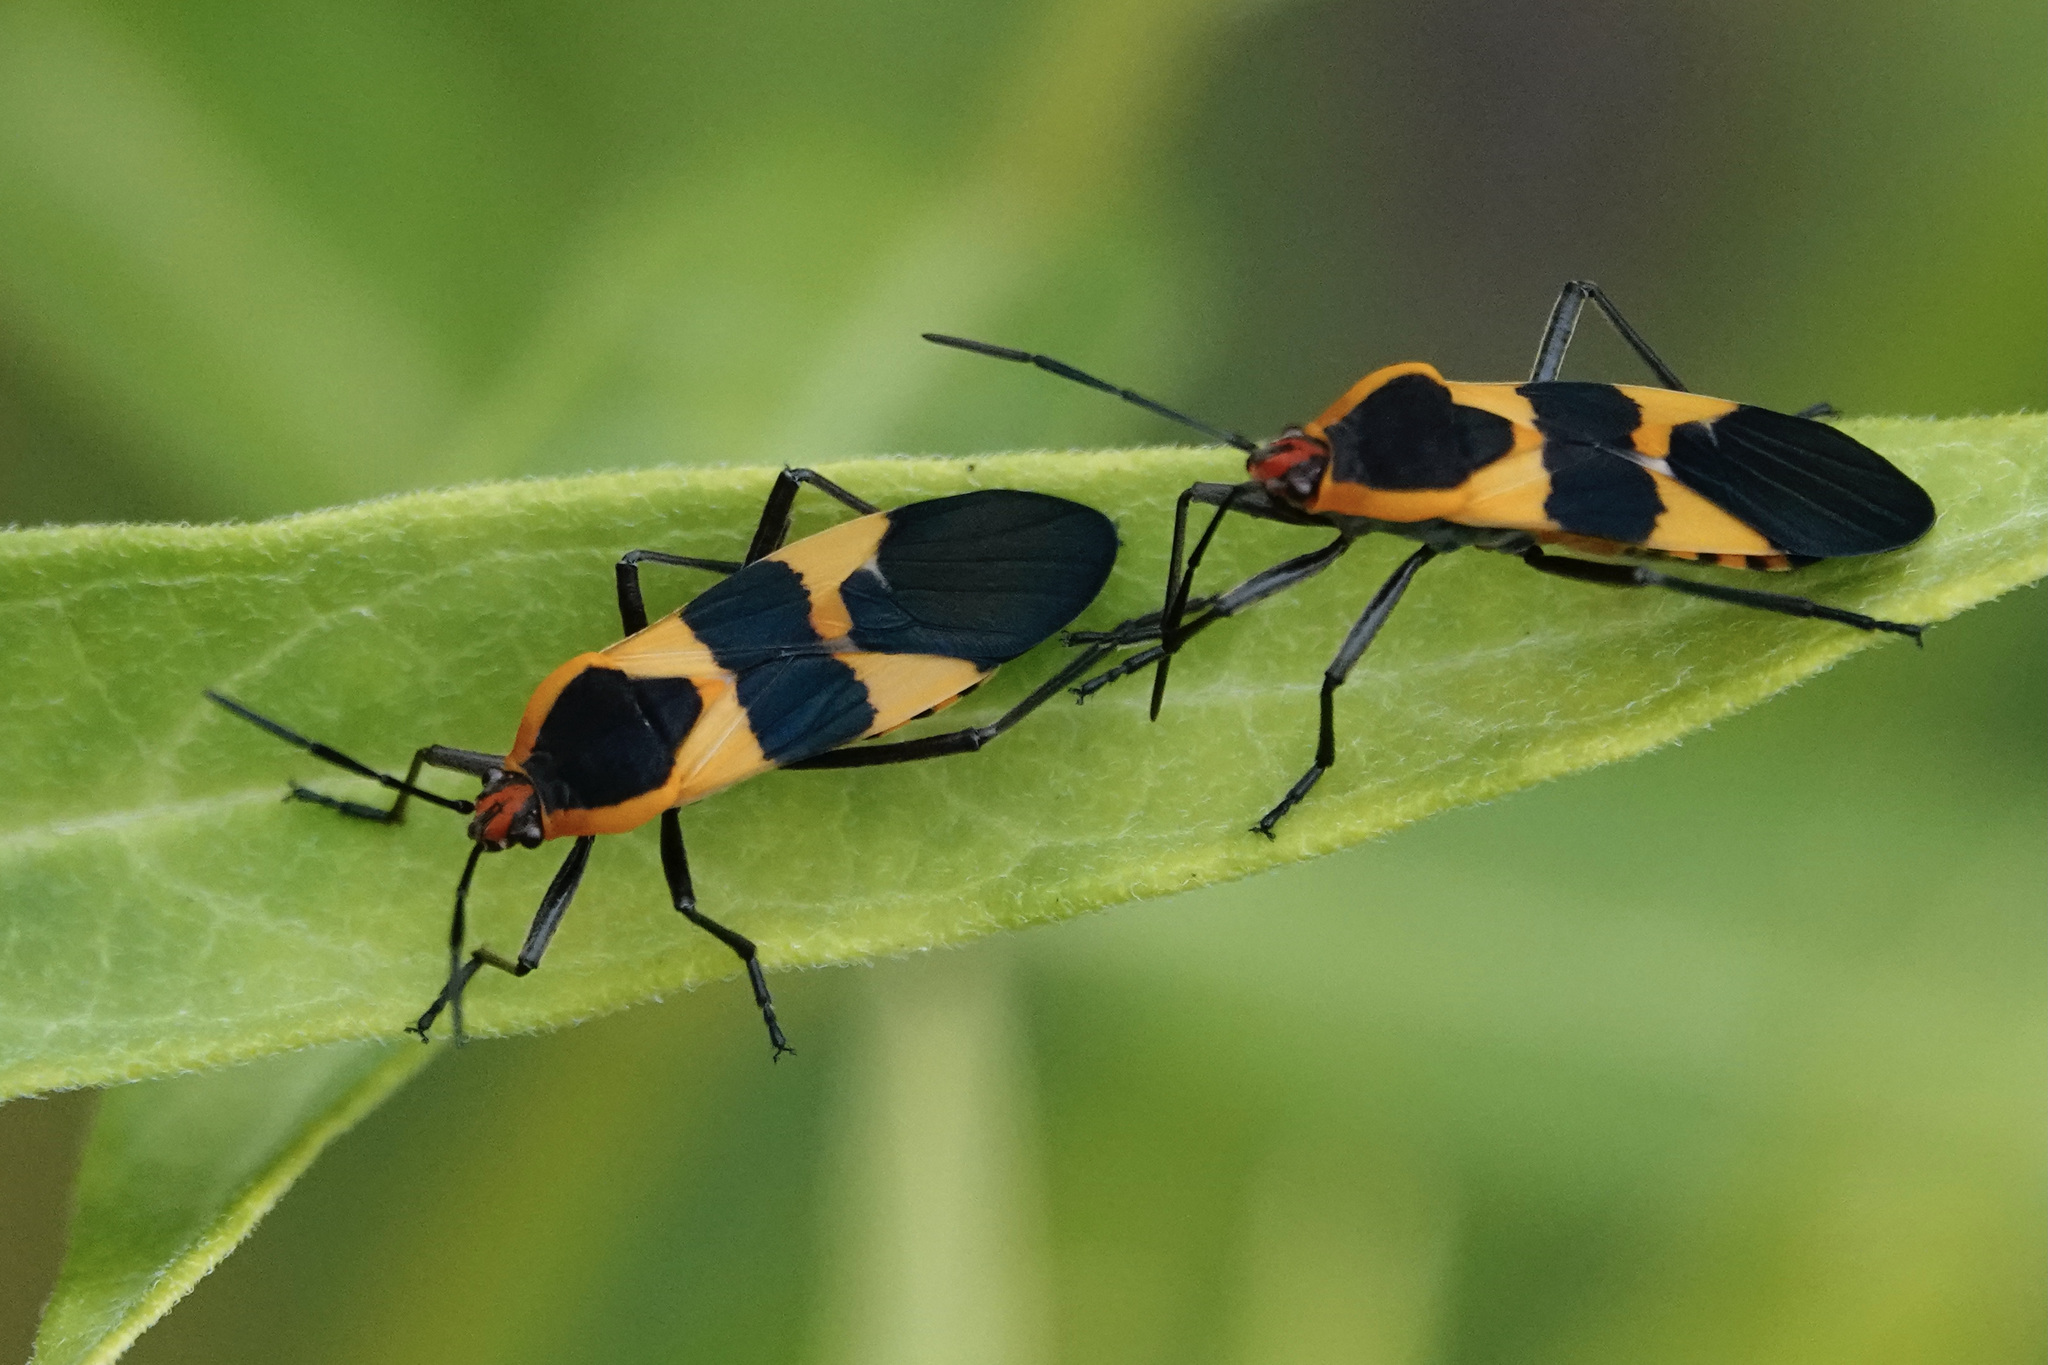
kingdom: Animalia
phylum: Arthropoda
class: Insecta
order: Hemiptera
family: Lygaeidae
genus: Oncopeltus
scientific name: Oncopeltus fasciatus
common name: Large milkweed bug
